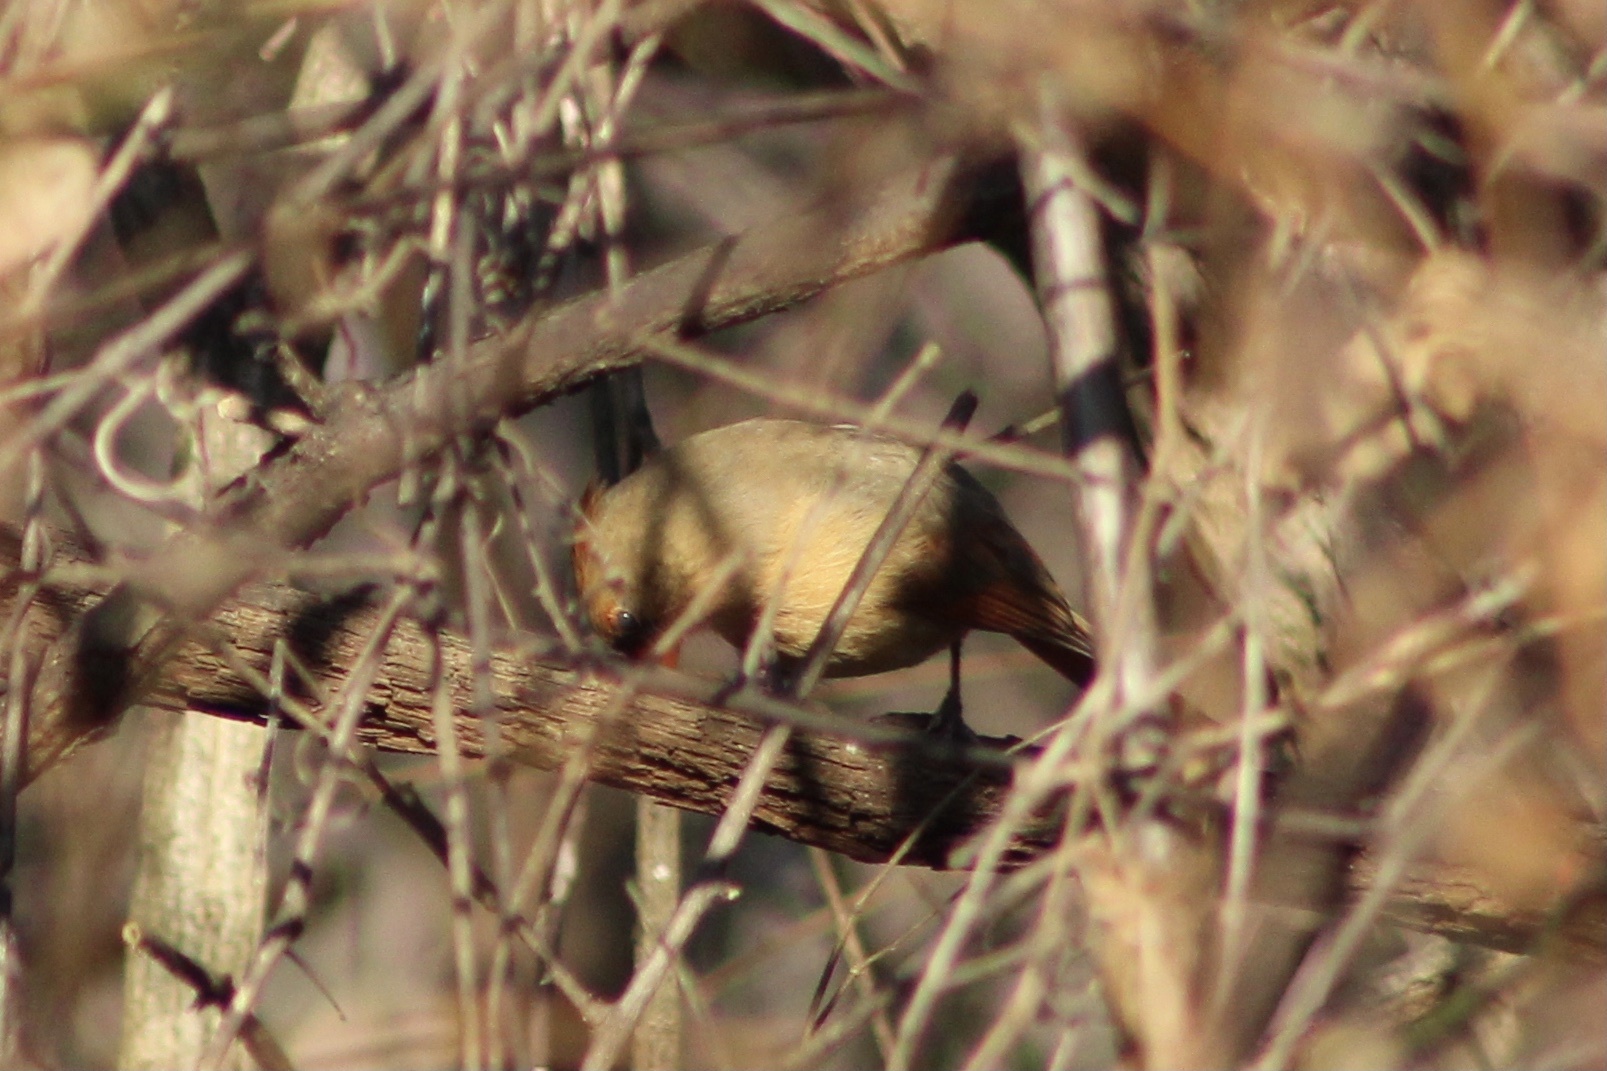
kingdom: Animalia
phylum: Chordata
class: Aves
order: Passeriformes
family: Cardinalidae
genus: Cardinalis
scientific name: Cardinalis cardinalis
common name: Northern cardinal
